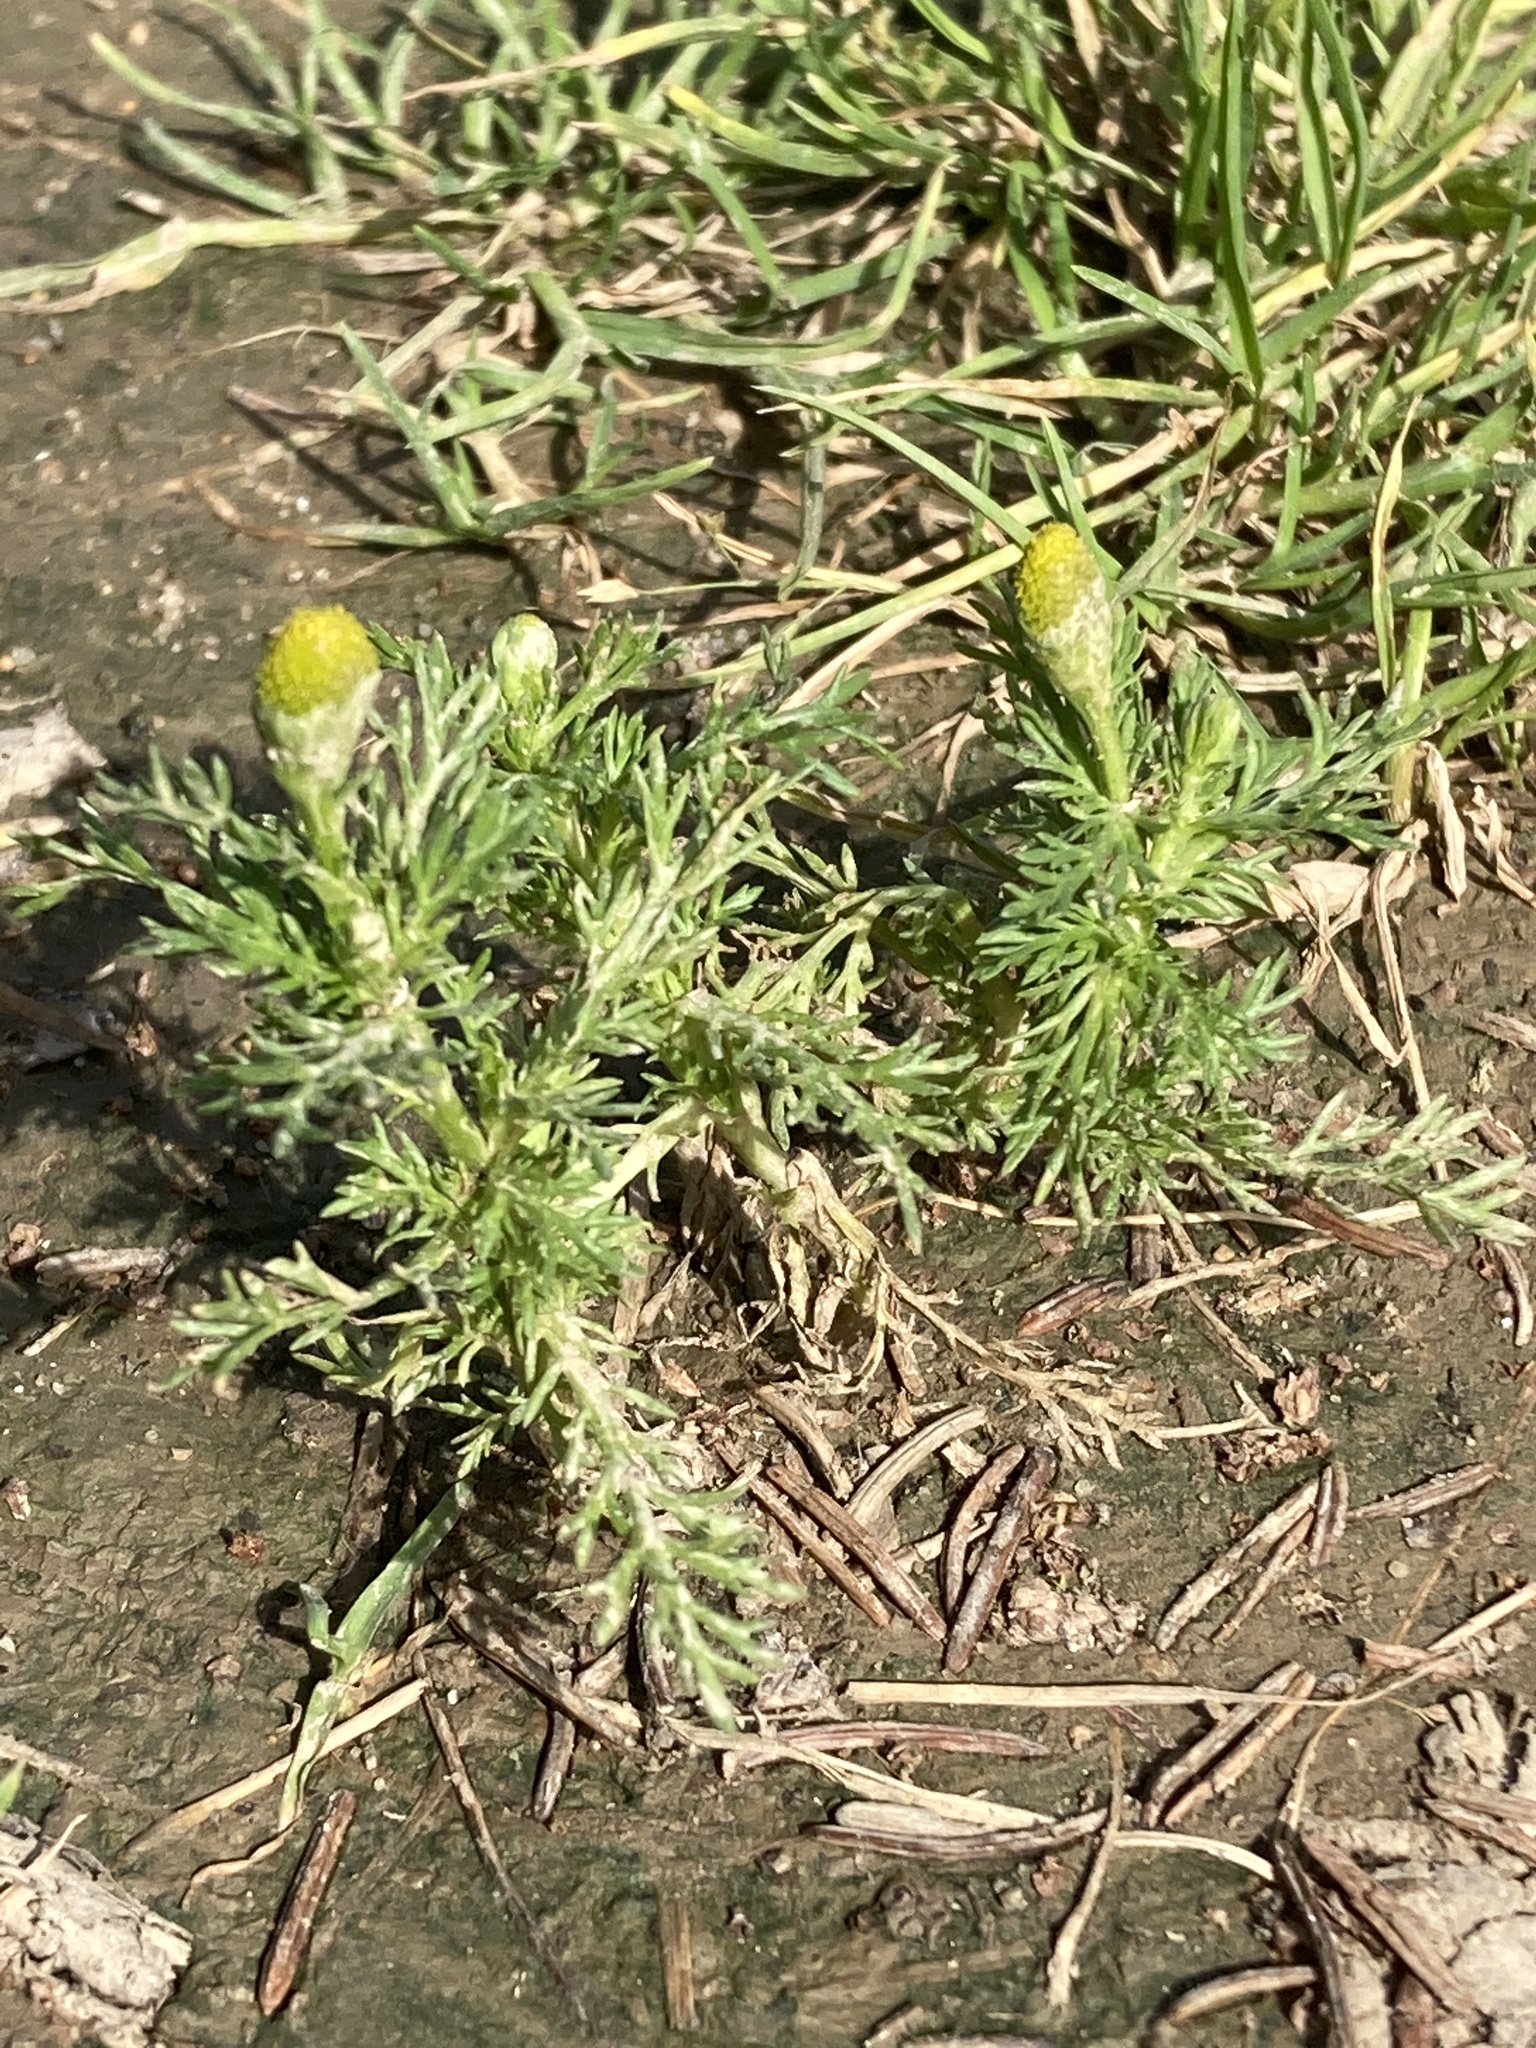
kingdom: Plantae
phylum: Tracheophyta
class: Magnoliopsida
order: Asterales
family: Asteraceae
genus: Matricaria
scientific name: Matricaria discoidea
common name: Disc mayweed
